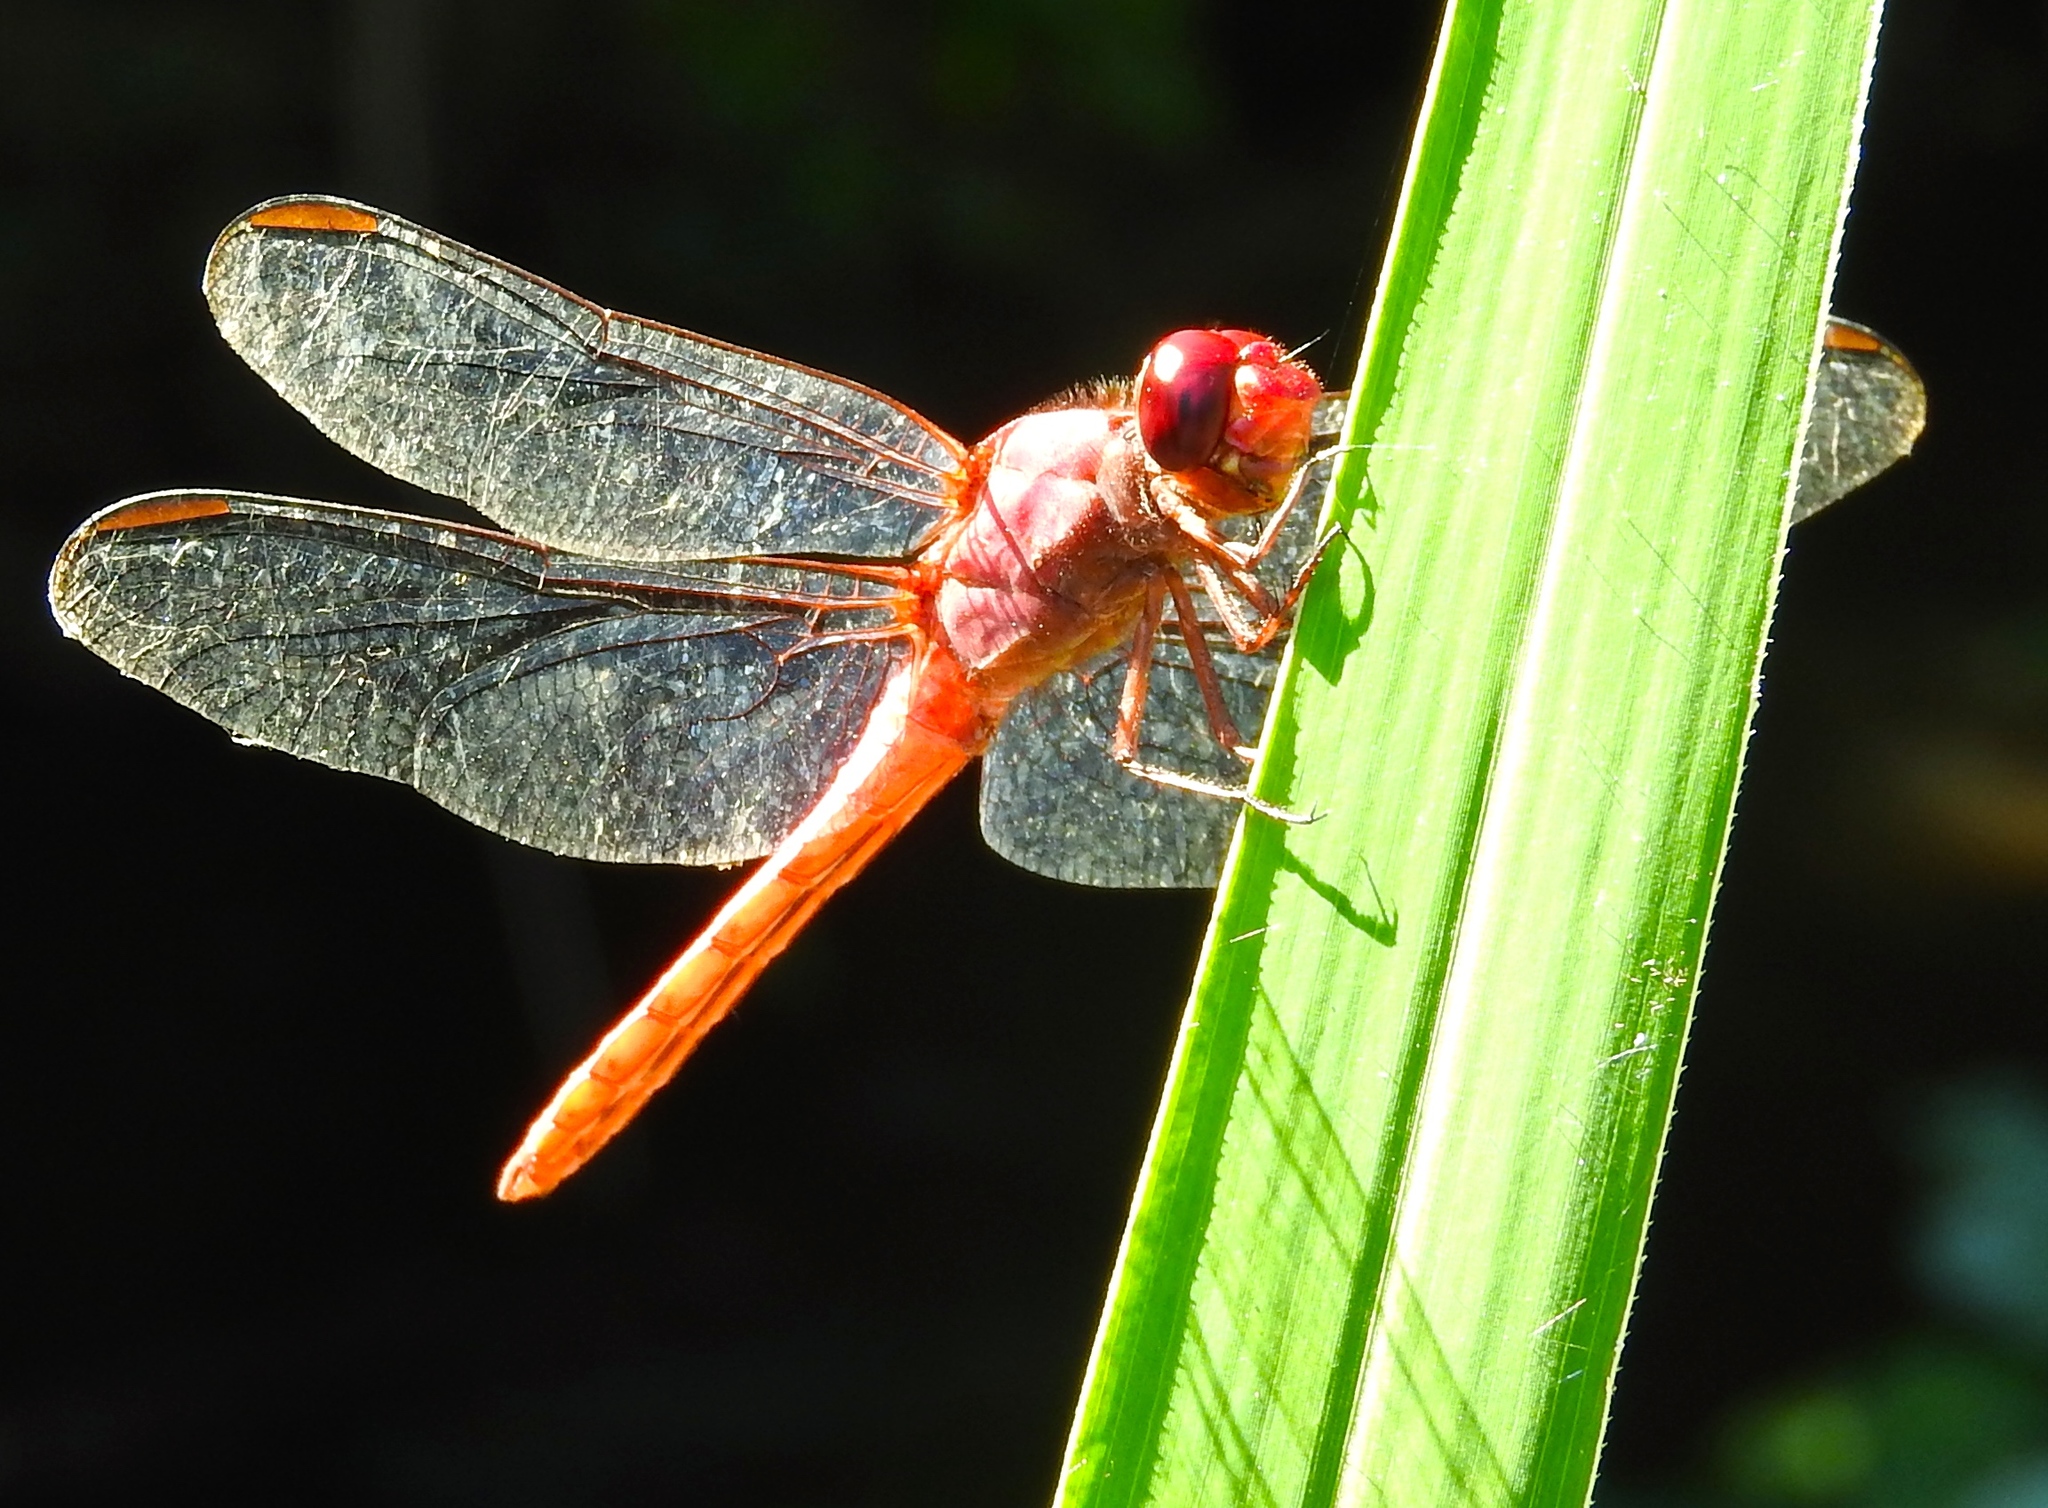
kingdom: Animalia
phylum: Arthropoda
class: Insecta
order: Odonata
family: Libellulidae
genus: Orthemis
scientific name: Orthemis
